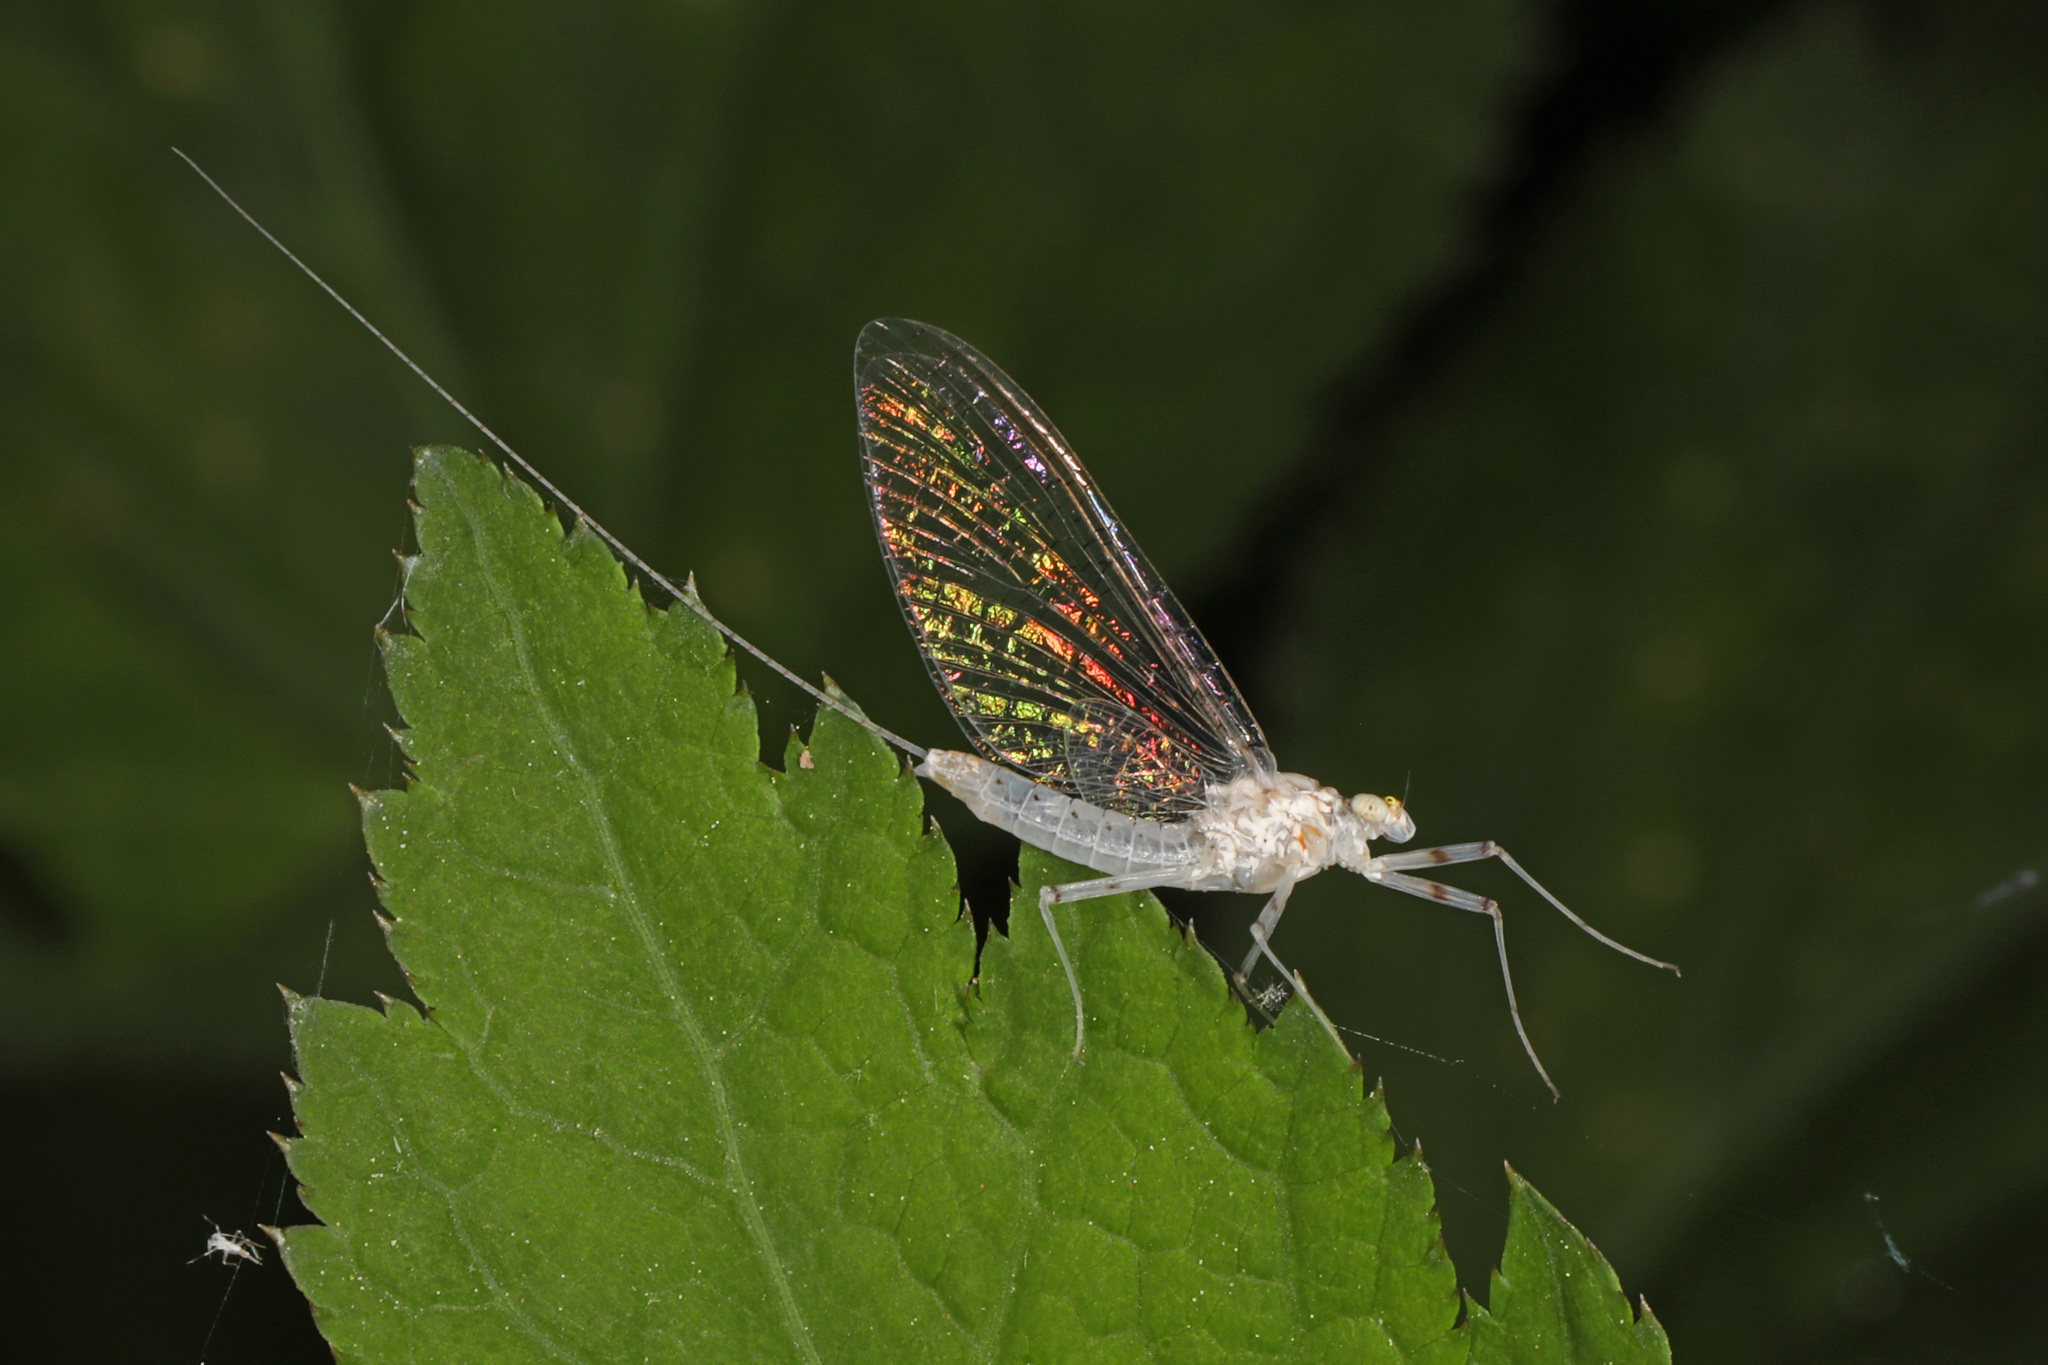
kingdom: Animalia
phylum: Arthropoda
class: Insecta
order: Ephemeroptera
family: Heptageniidae
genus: Stenonema
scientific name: Stenonema femoratum
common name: Dark cahill
